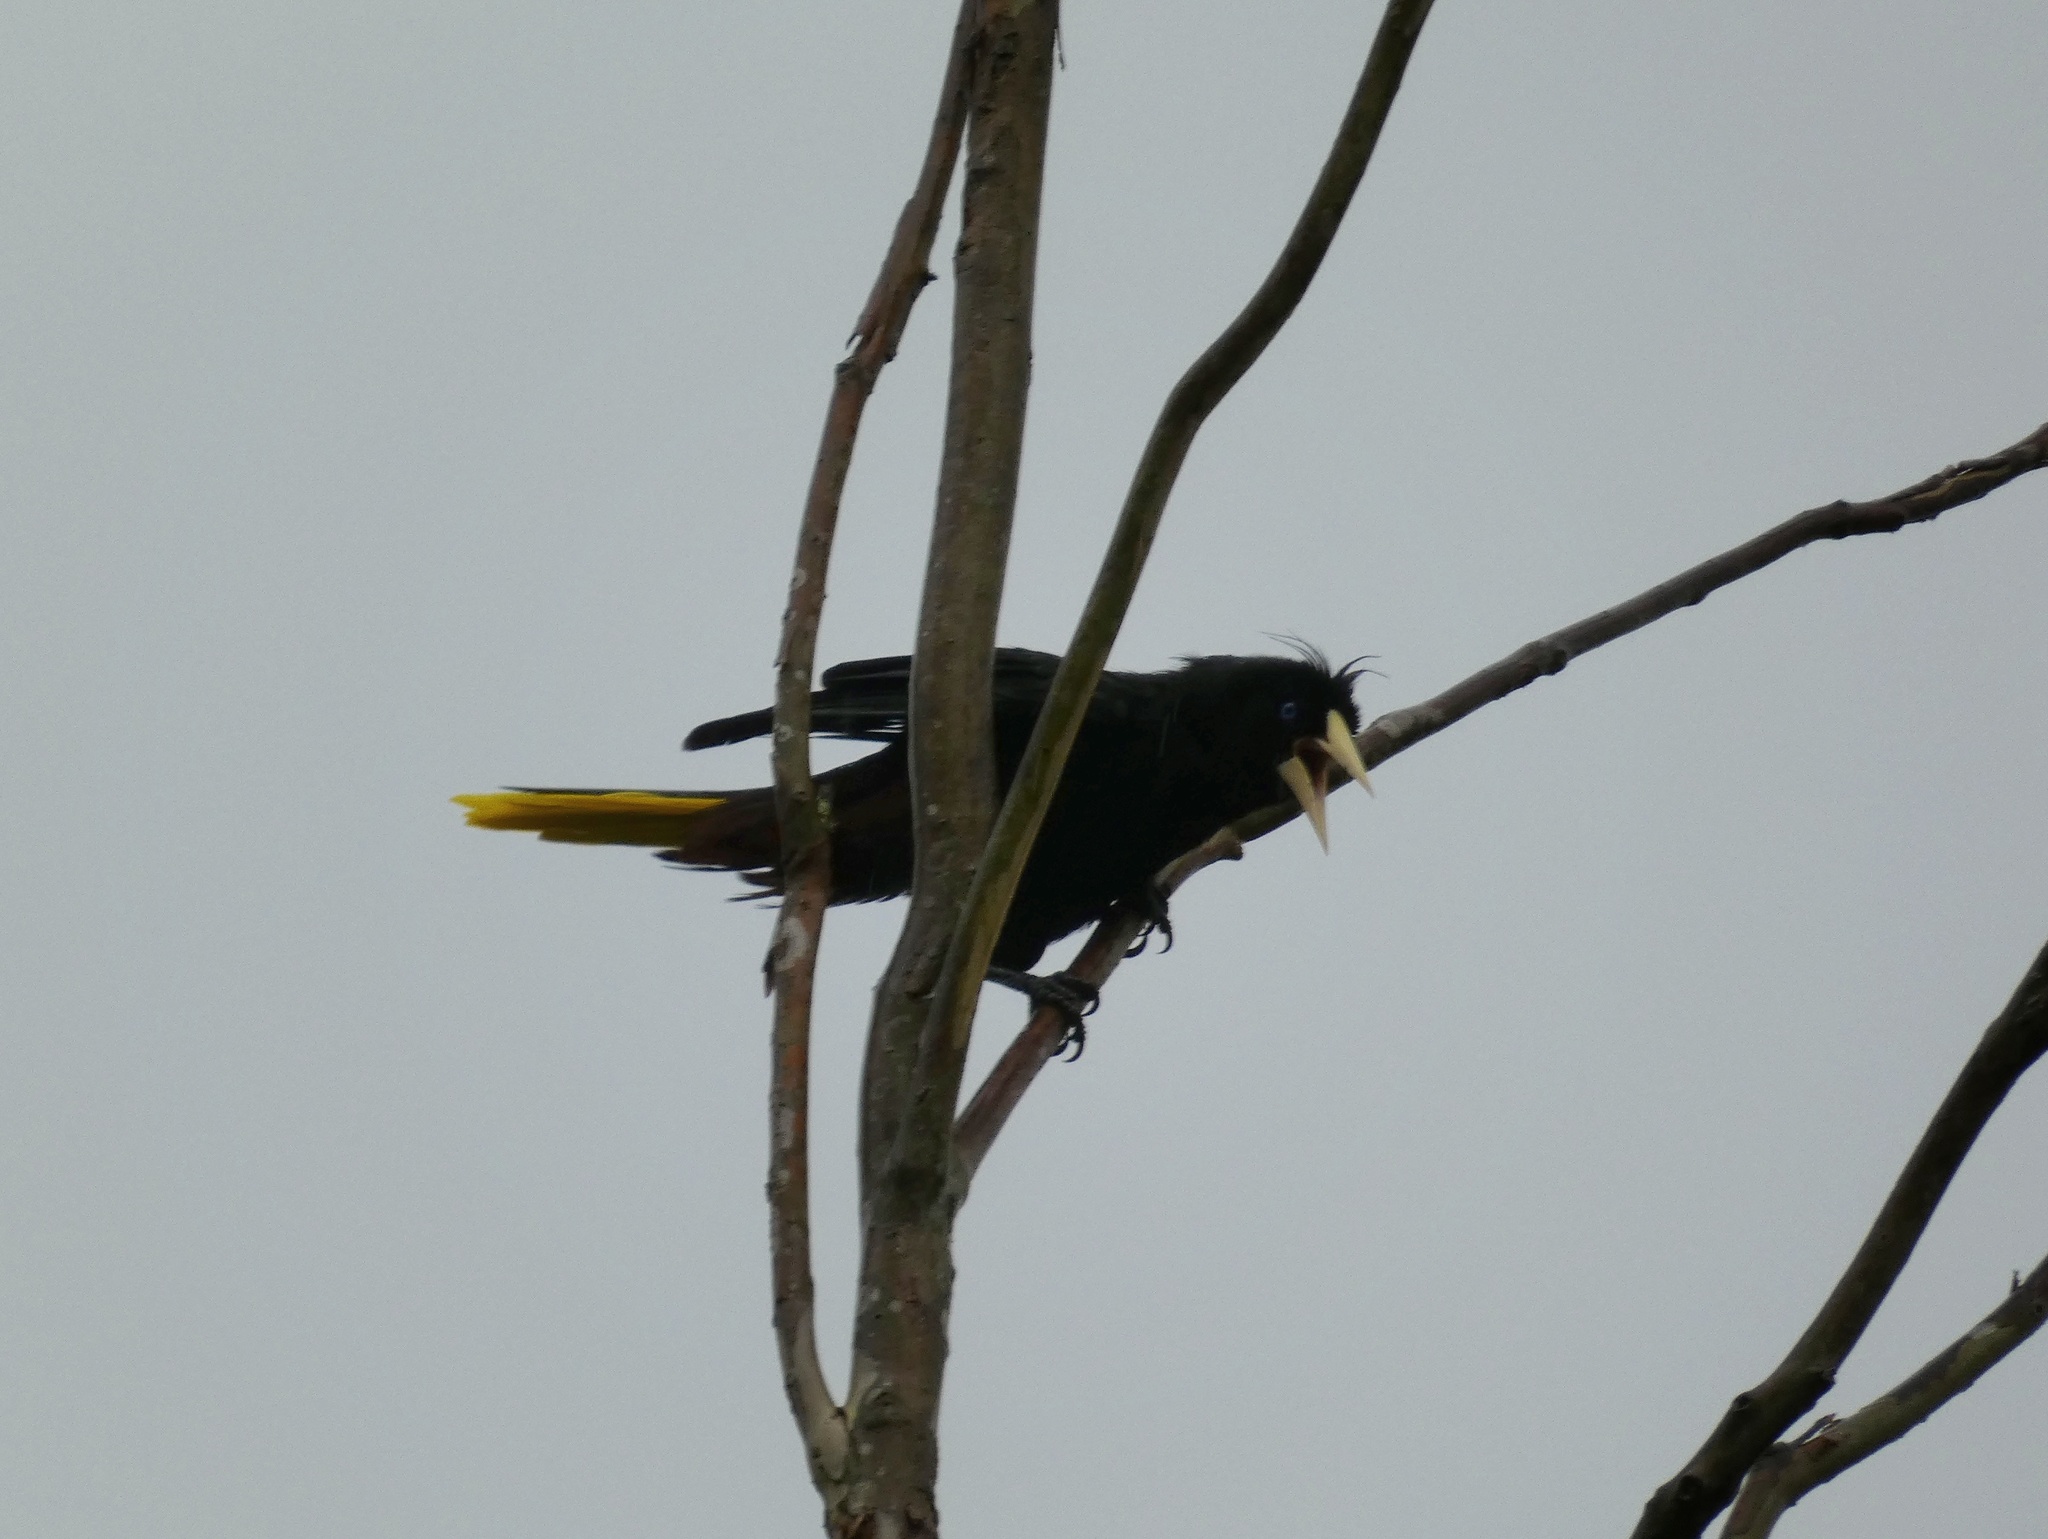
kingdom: Animalia
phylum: Chordata
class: Aves
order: Passeriformes
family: Icteridae
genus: Psarocolius
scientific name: Psarocolius decumanus
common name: Crested oropendola
